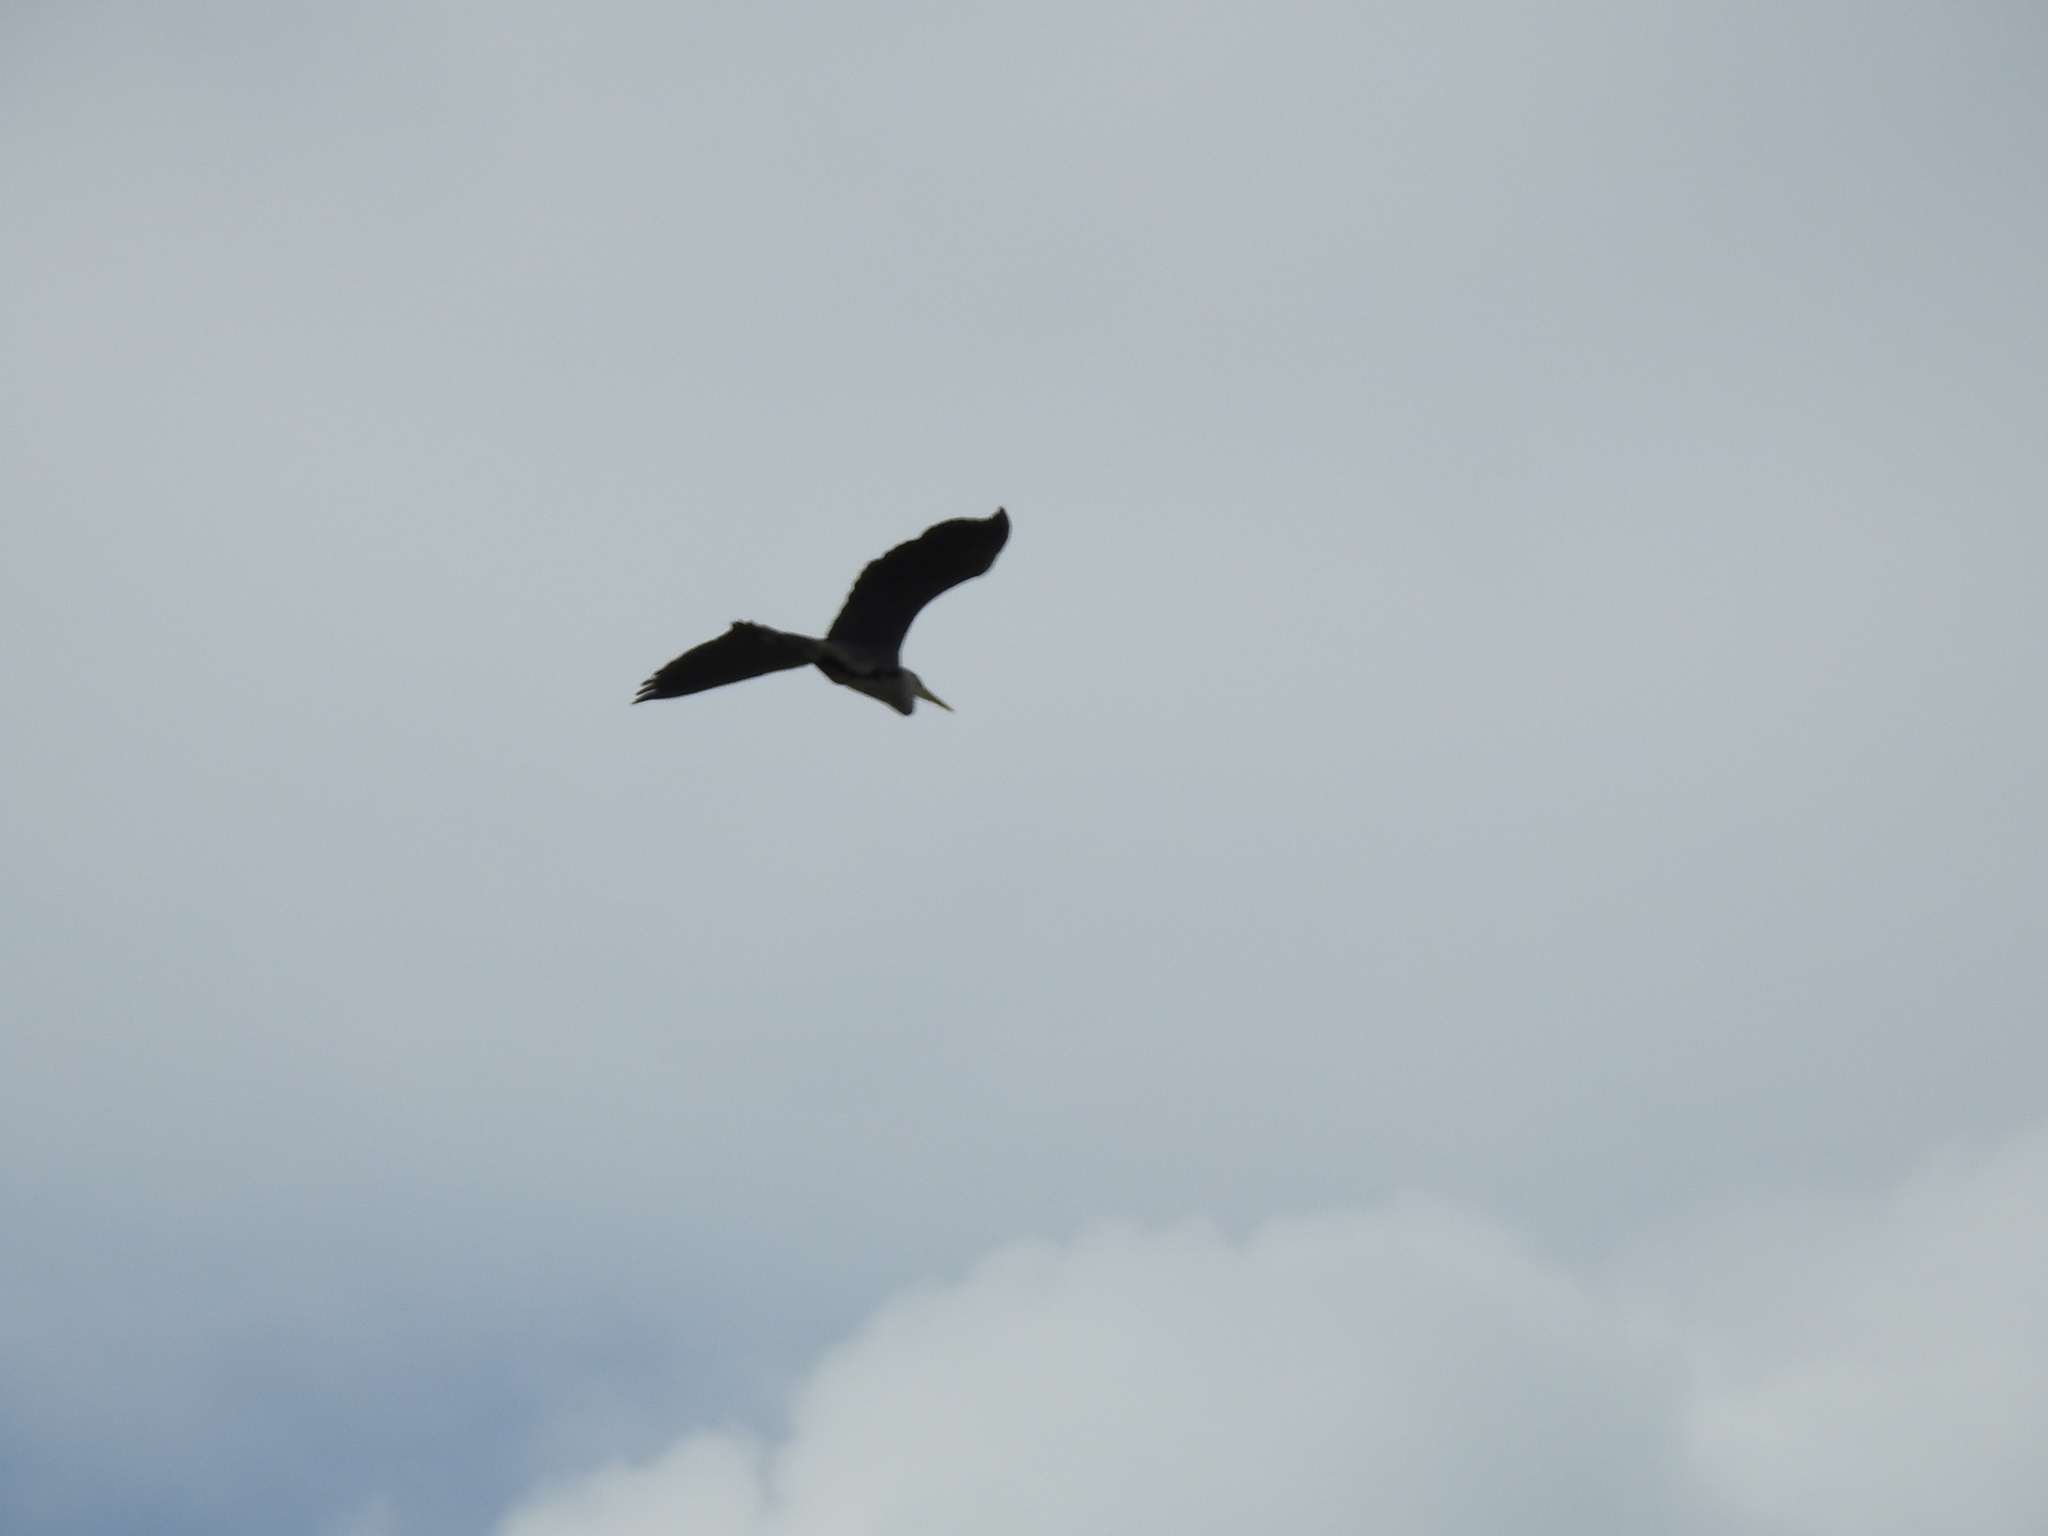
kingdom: Animalia
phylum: Chordata
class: Aves
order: Pelecaniformes
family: Ardeidae
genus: Ardea
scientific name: Ardea cinerea
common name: Grey heron
